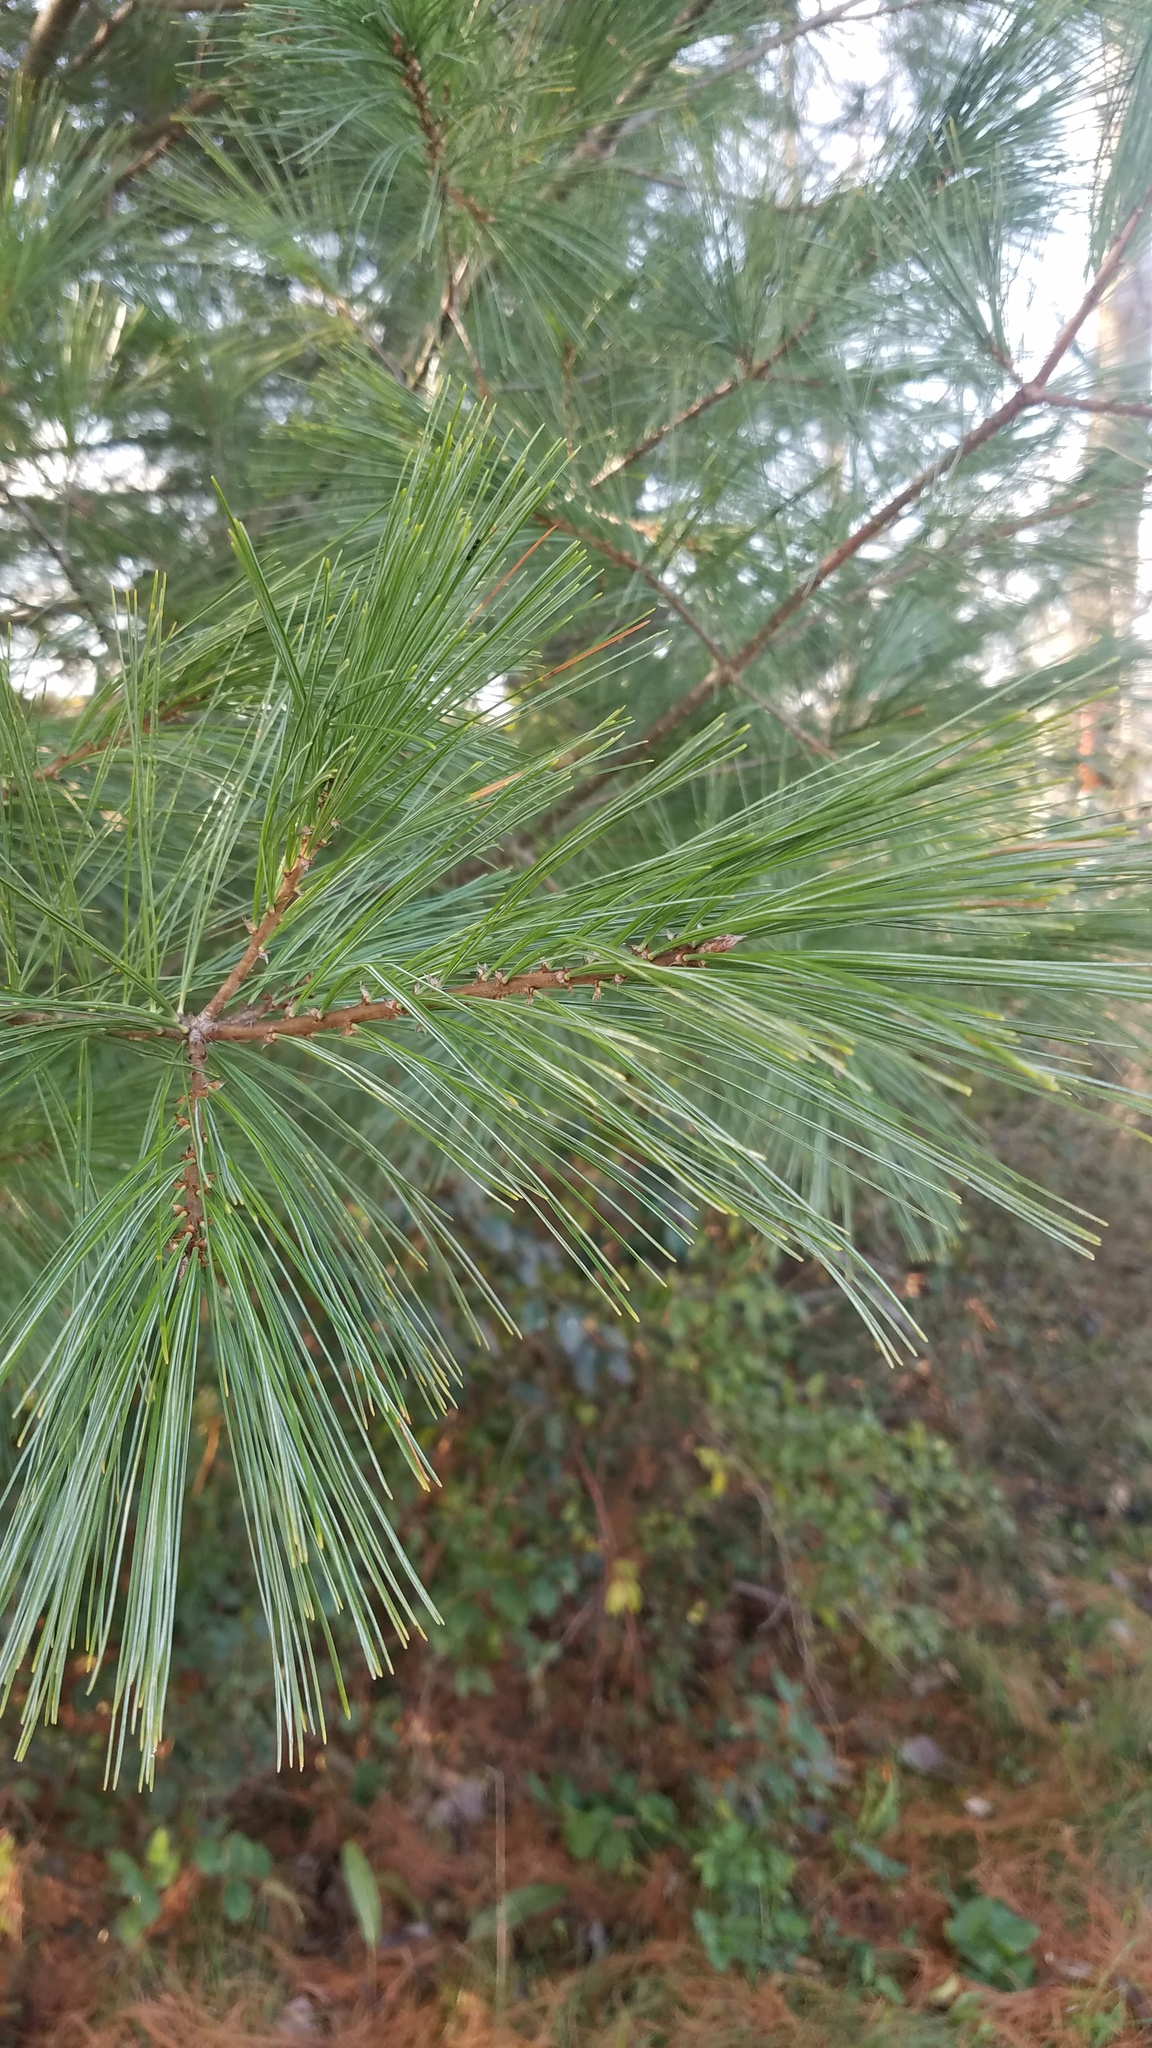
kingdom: Plantae
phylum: Tracheophyta
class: Pinopsida
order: Pinales
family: Pinaceae
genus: Pinus
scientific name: Pinus strobus
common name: Weymouth pine
